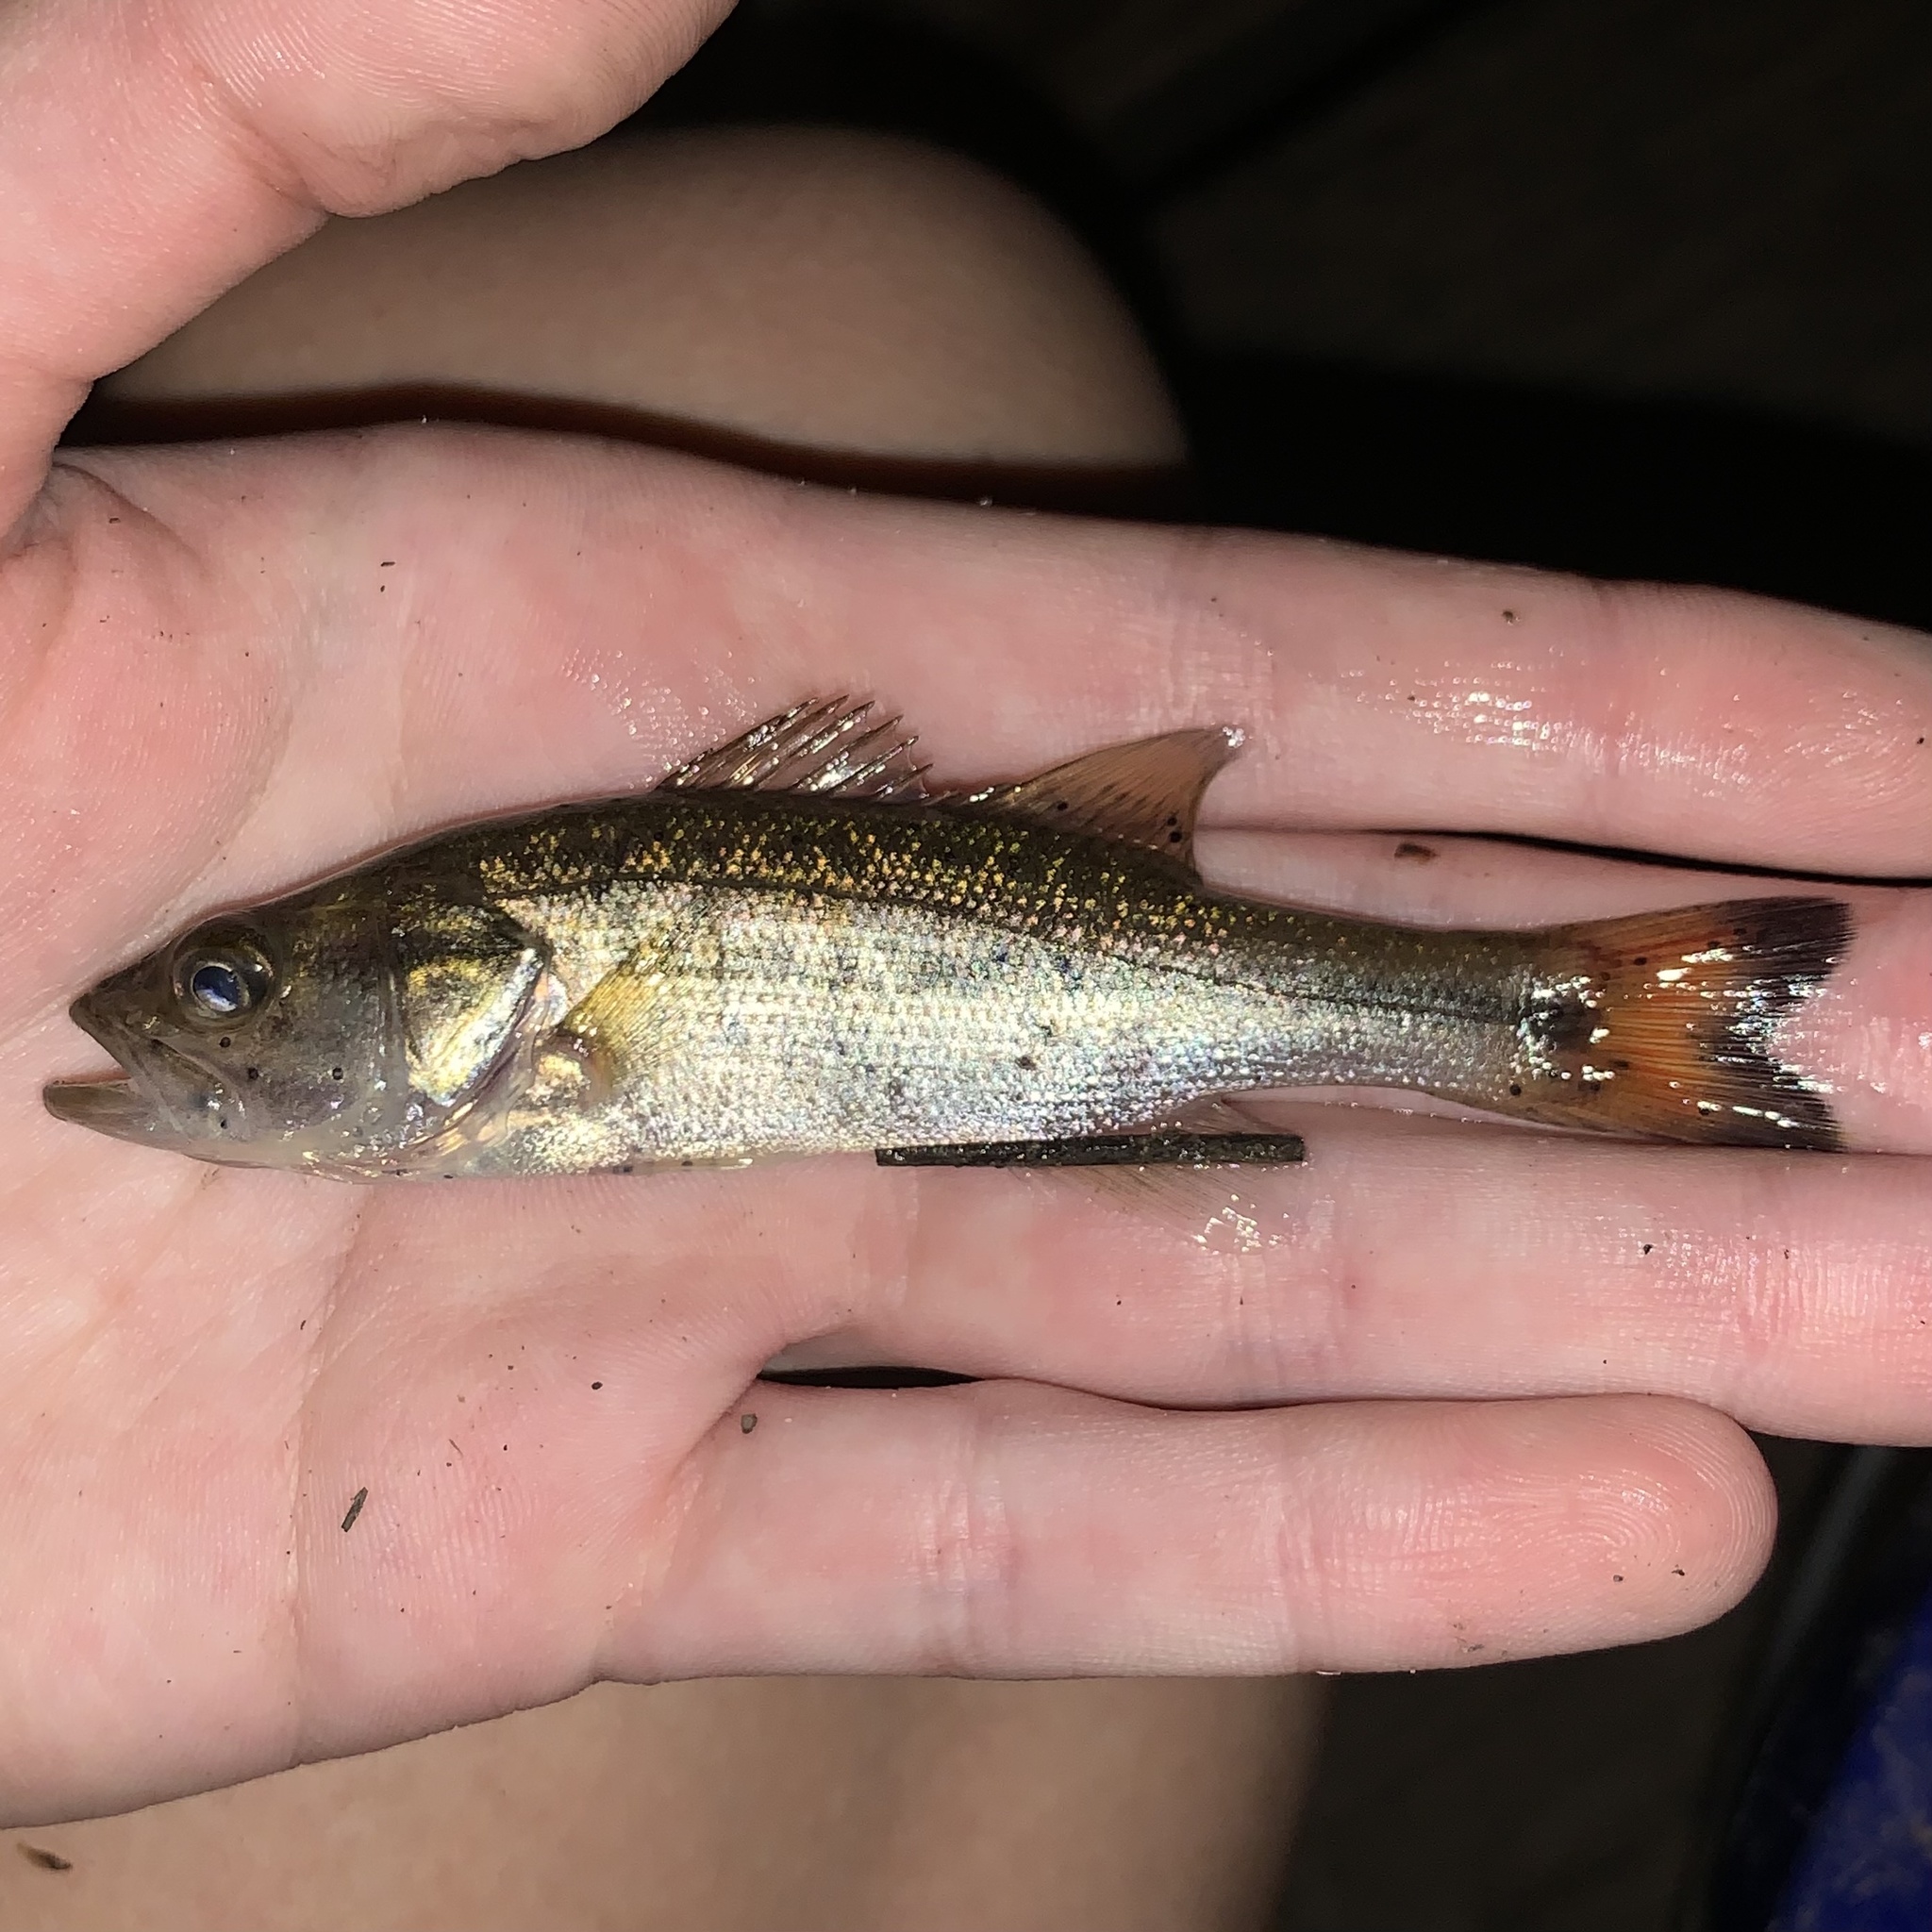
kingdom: Animalia
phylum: Chordata
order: Perciformes
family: Centrarchidae
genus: Micropterus
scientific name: Micropterus
